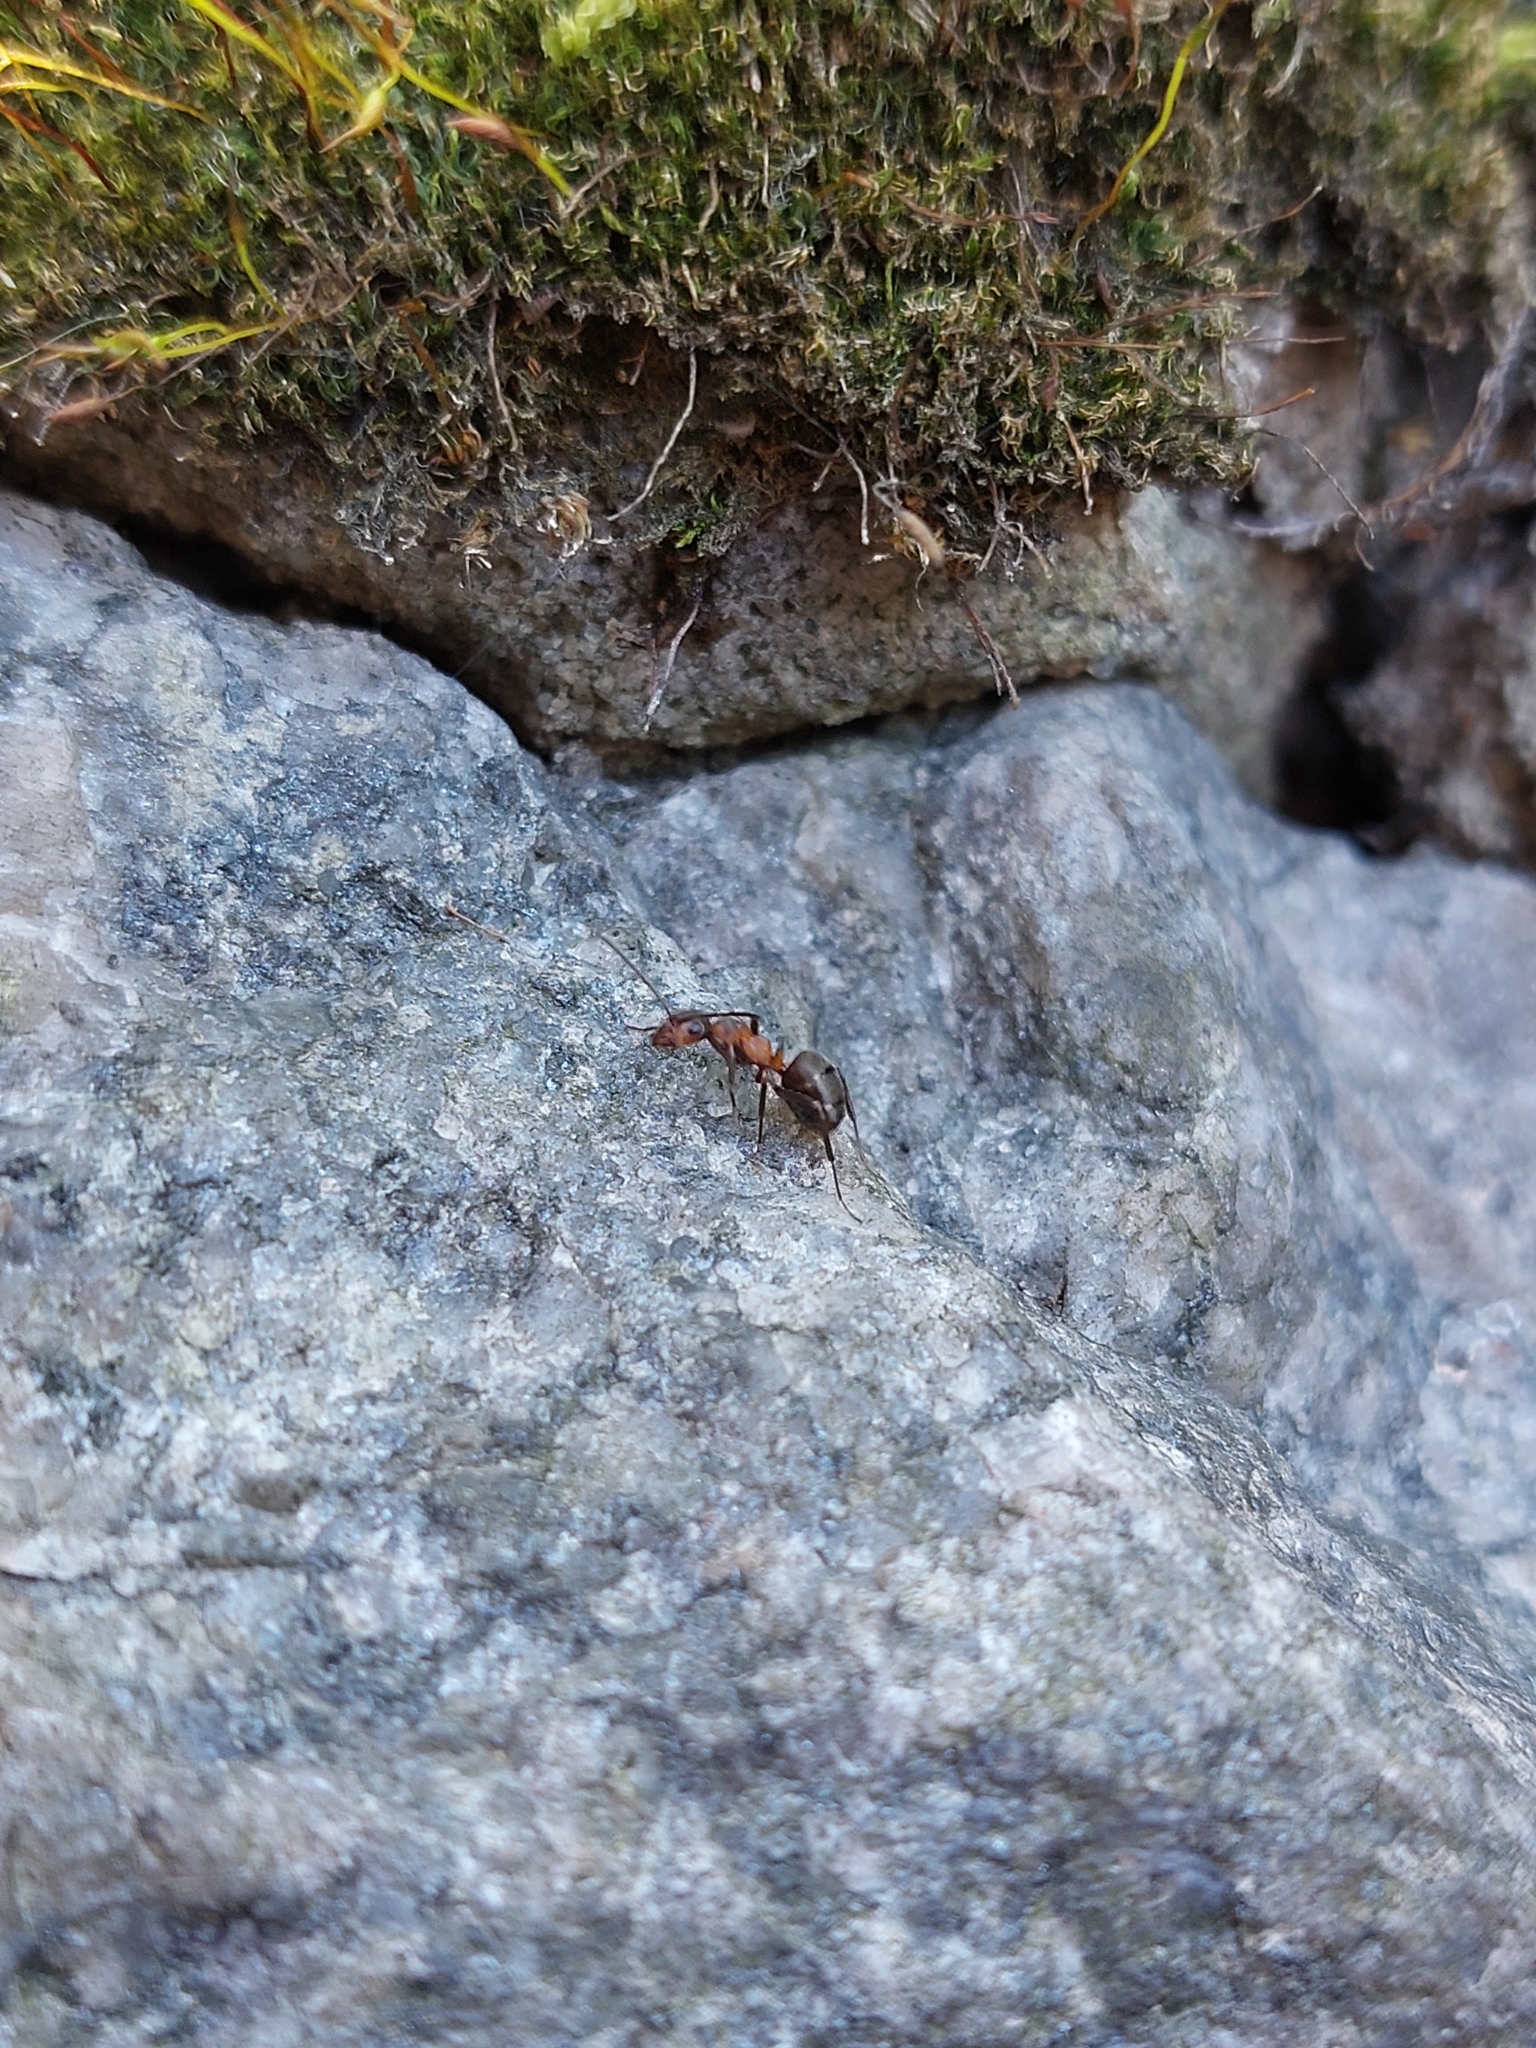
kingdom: Animalia
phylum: Arthropoda
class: Insecta
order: Hymenoptera
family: Formicidae
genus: Formica
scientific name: Formica polyctena
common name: European red wood ant
